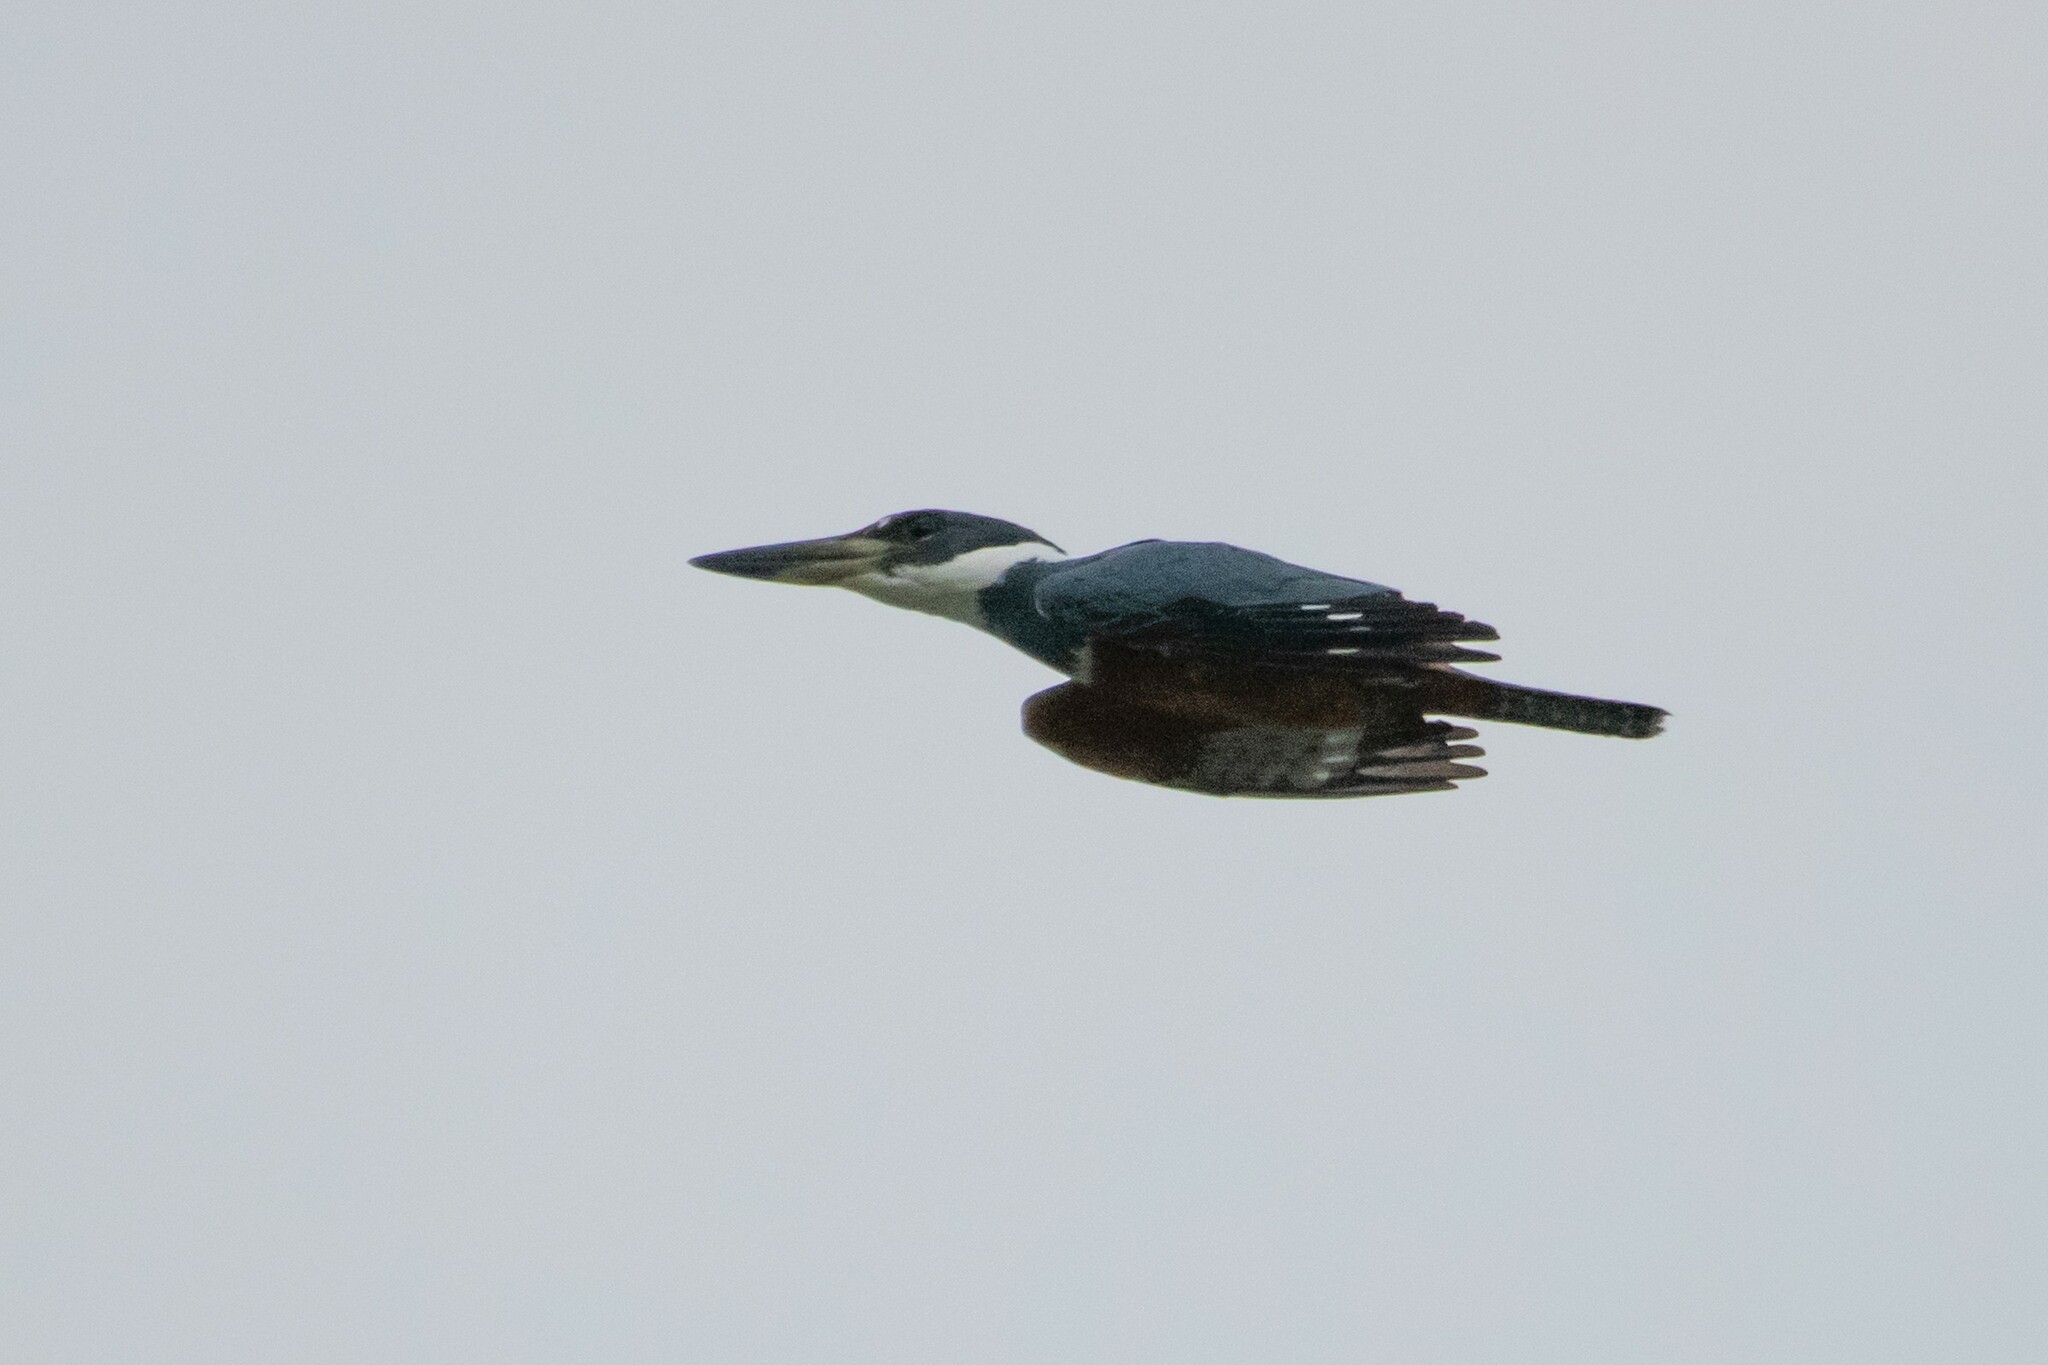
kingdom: Animalia
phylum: Chordata
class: Aves
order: Coraciiformes
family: Alcedinidae
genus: Megaceryle
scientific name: Megaceryle torquata
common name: Ringed kingfisher
